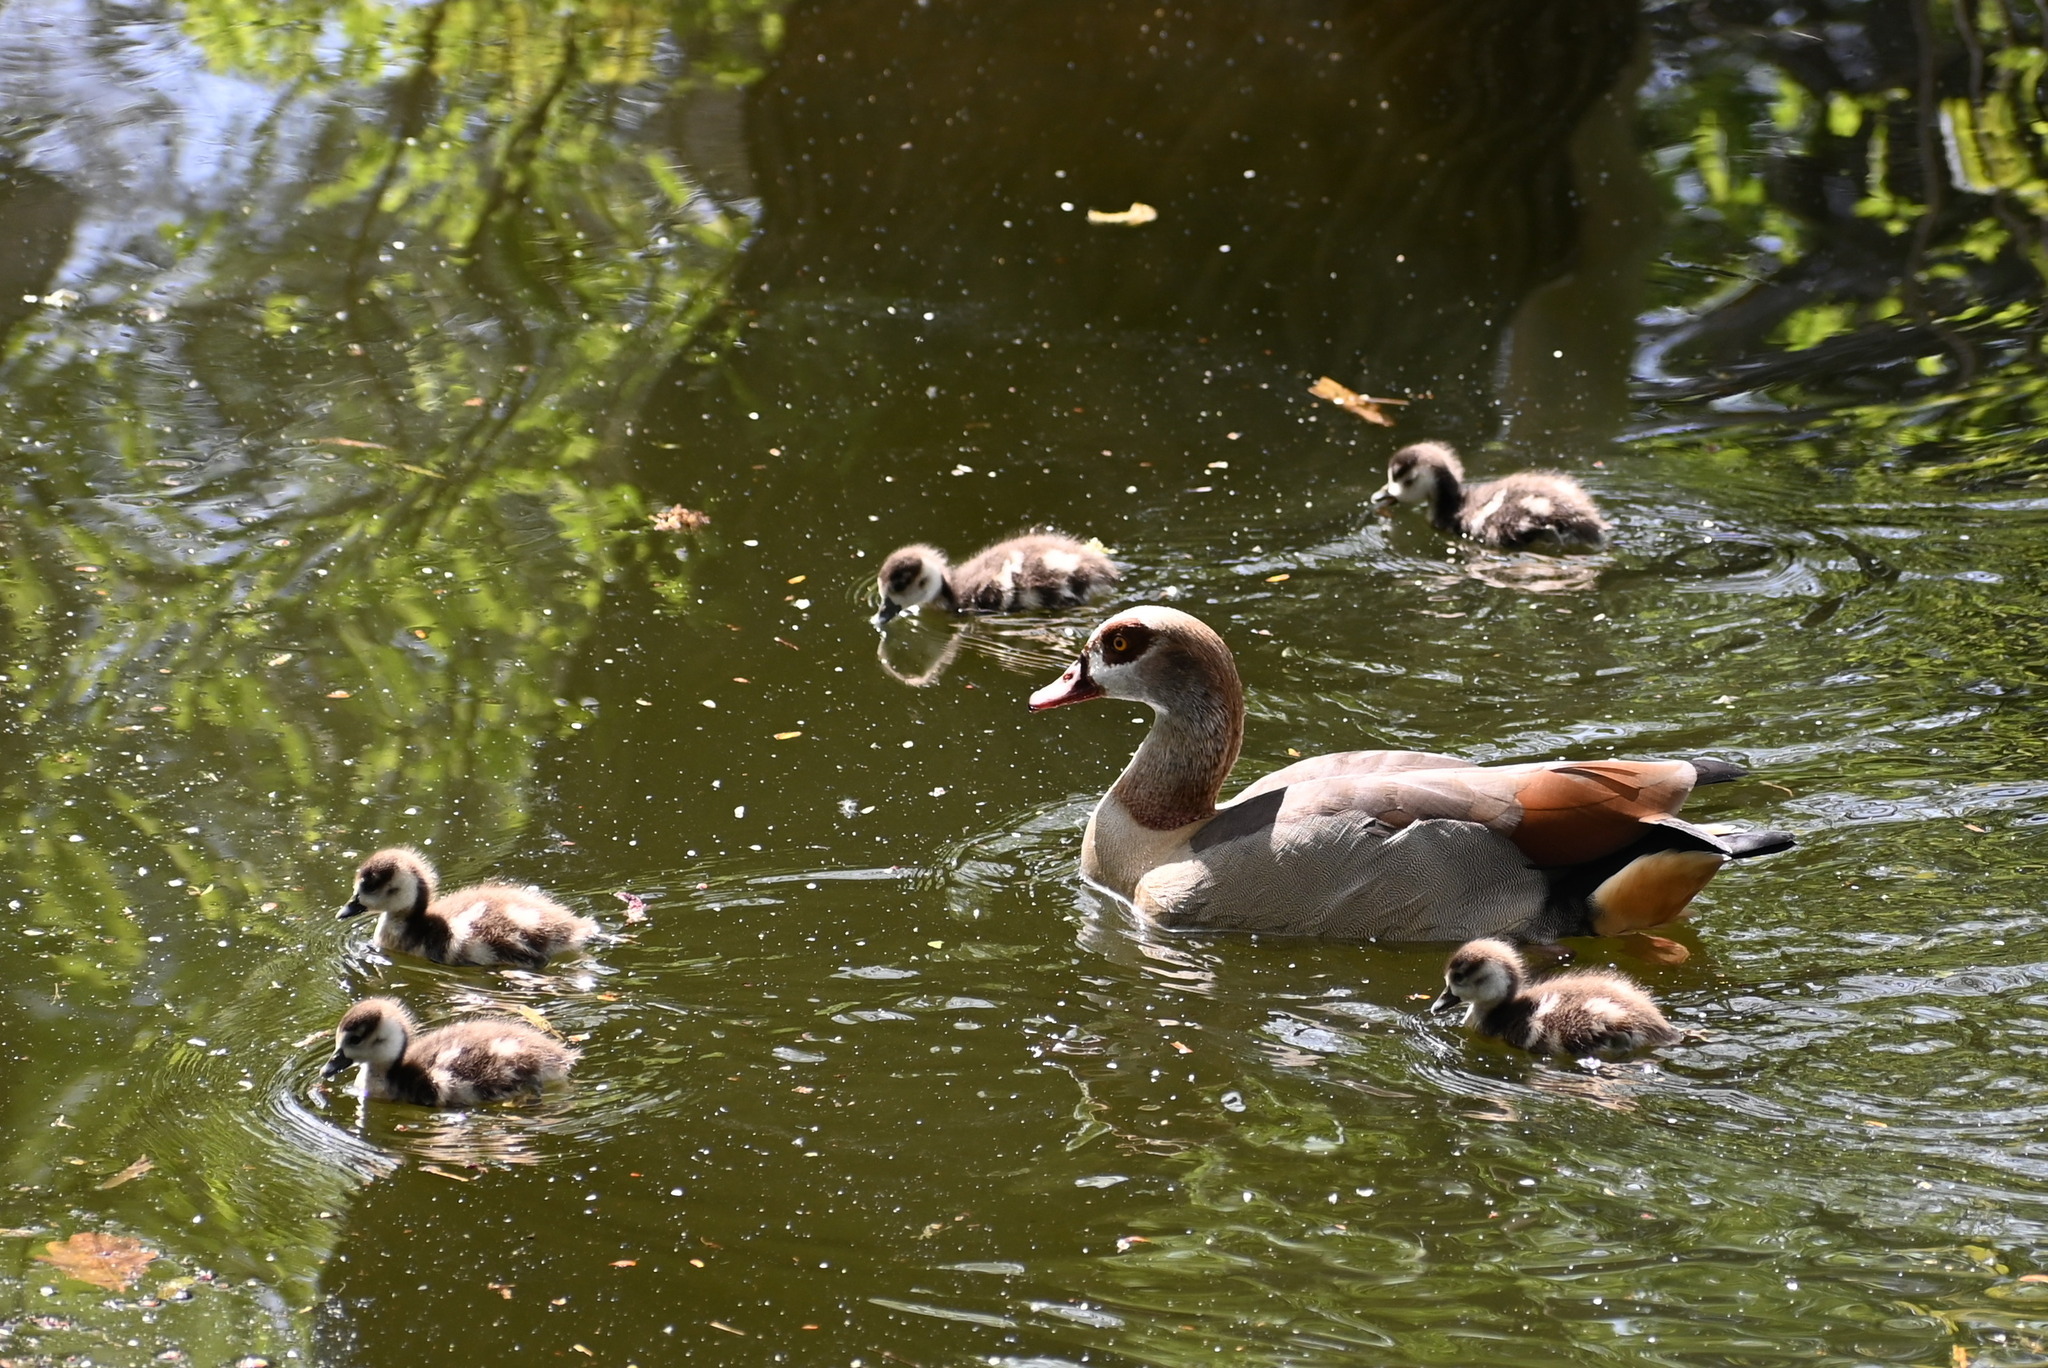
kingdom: Animalia
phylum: Chordata
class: Aves
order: Anseriformes
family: Anatidae
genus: Alopochen
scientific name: Alopochen aegyptiaca
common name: Egyptian goose
